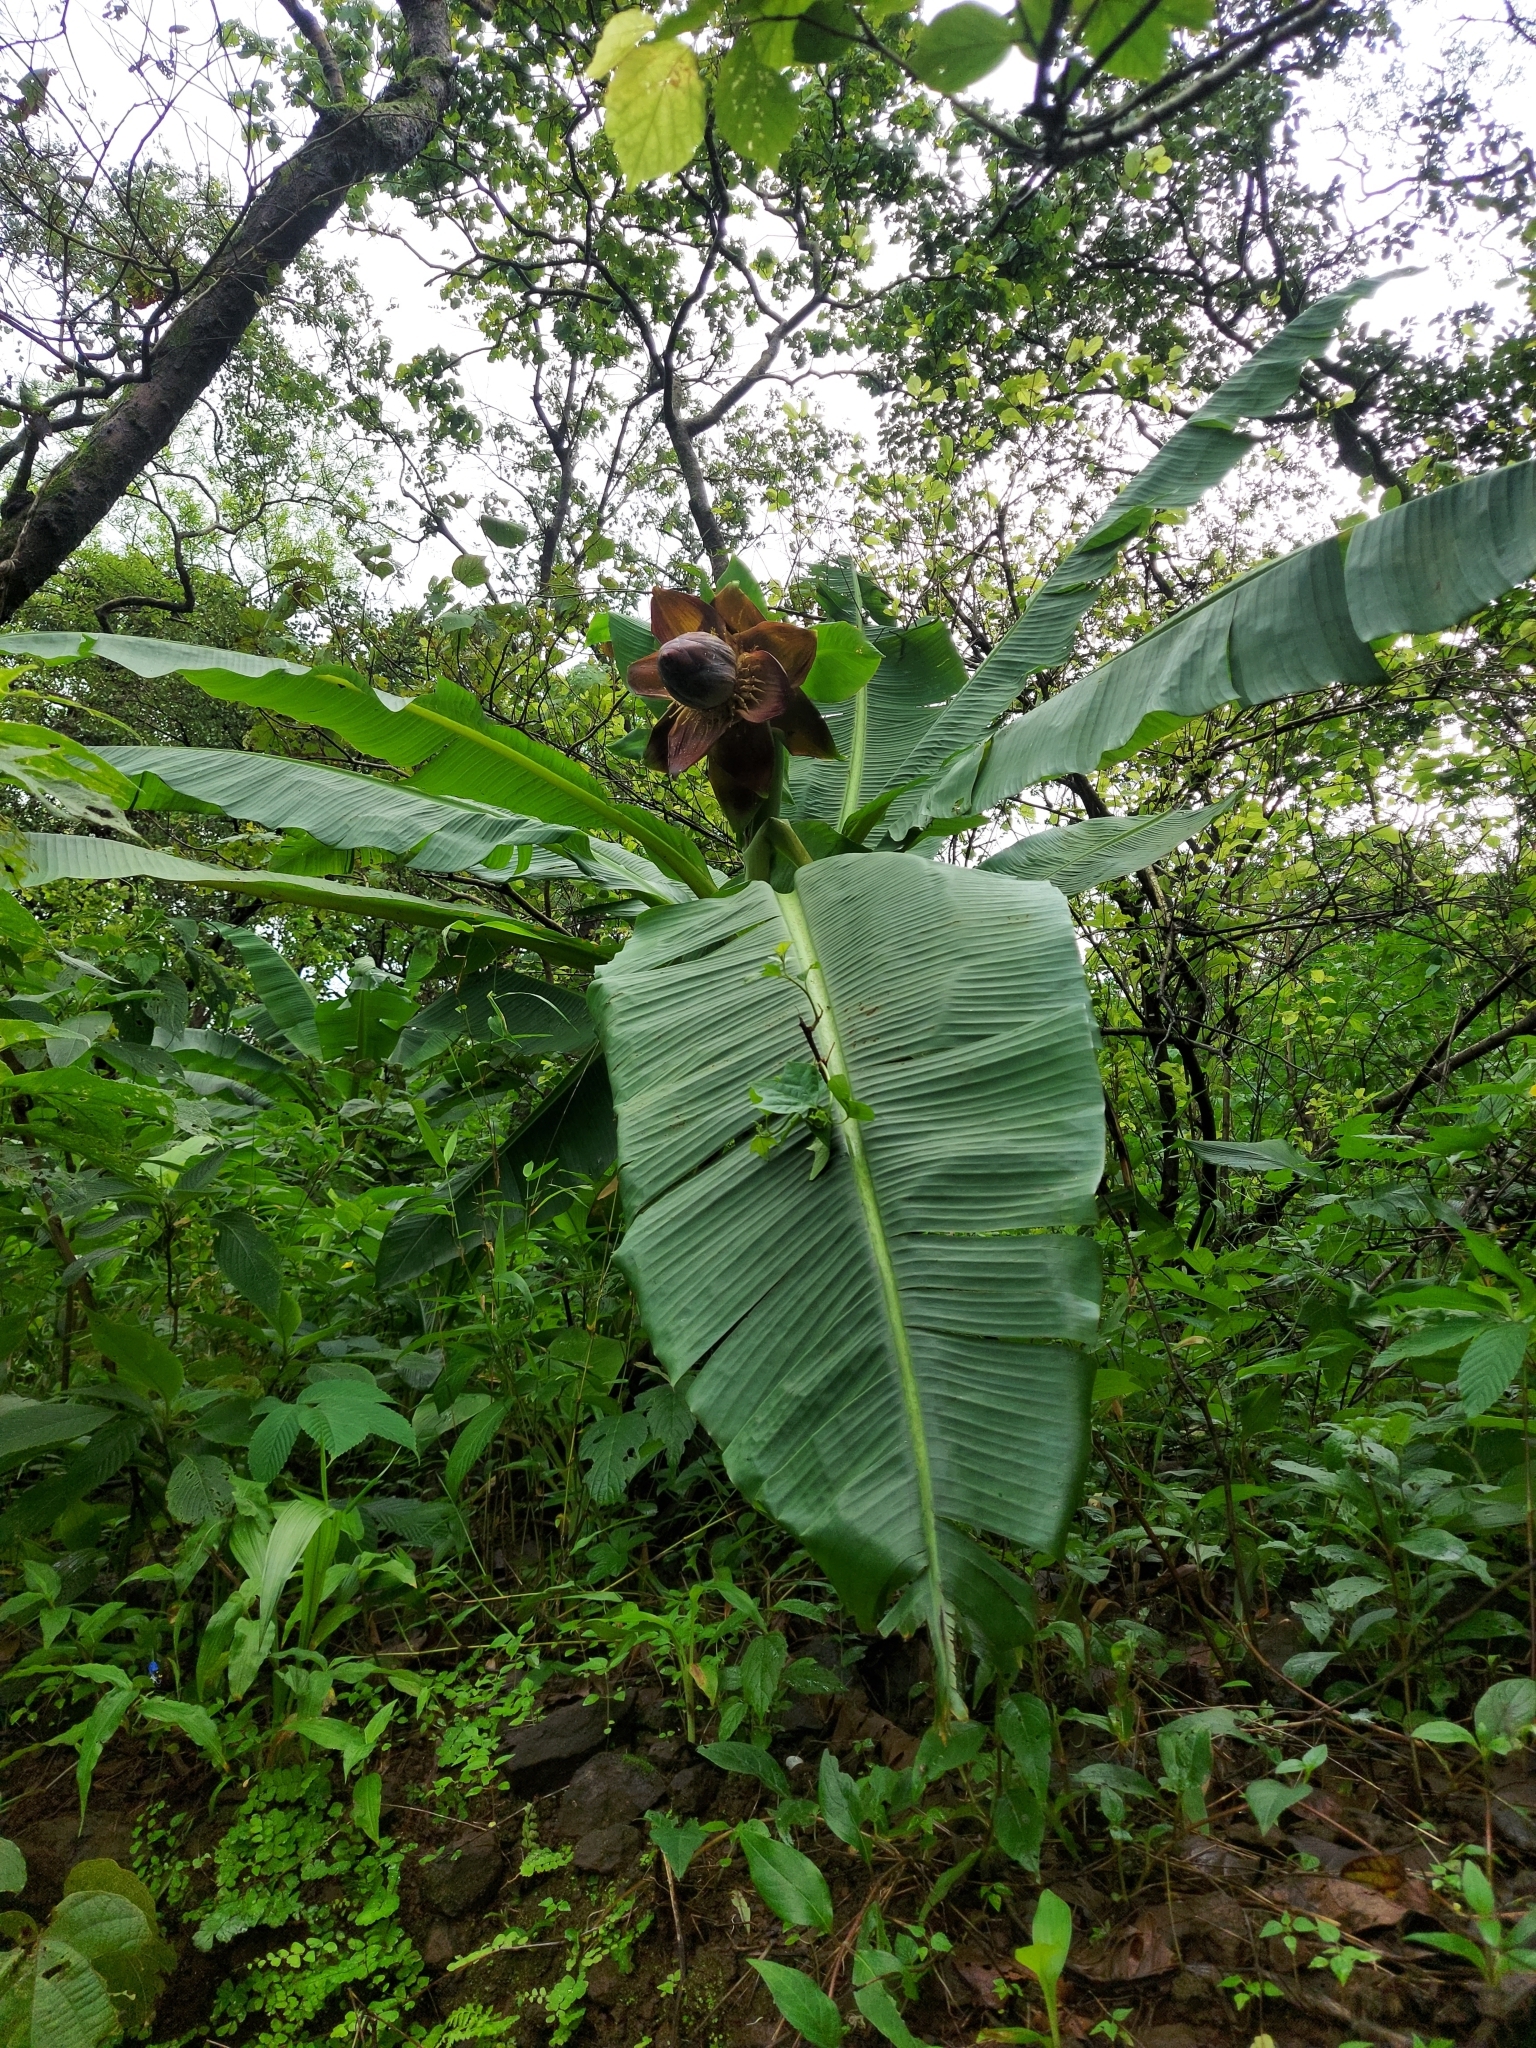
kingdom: Plantae
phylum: Tracheophyta
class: Liliopsida
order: Zingiberales
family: Musaceae
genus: Ensete
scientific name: Ensete superbum
